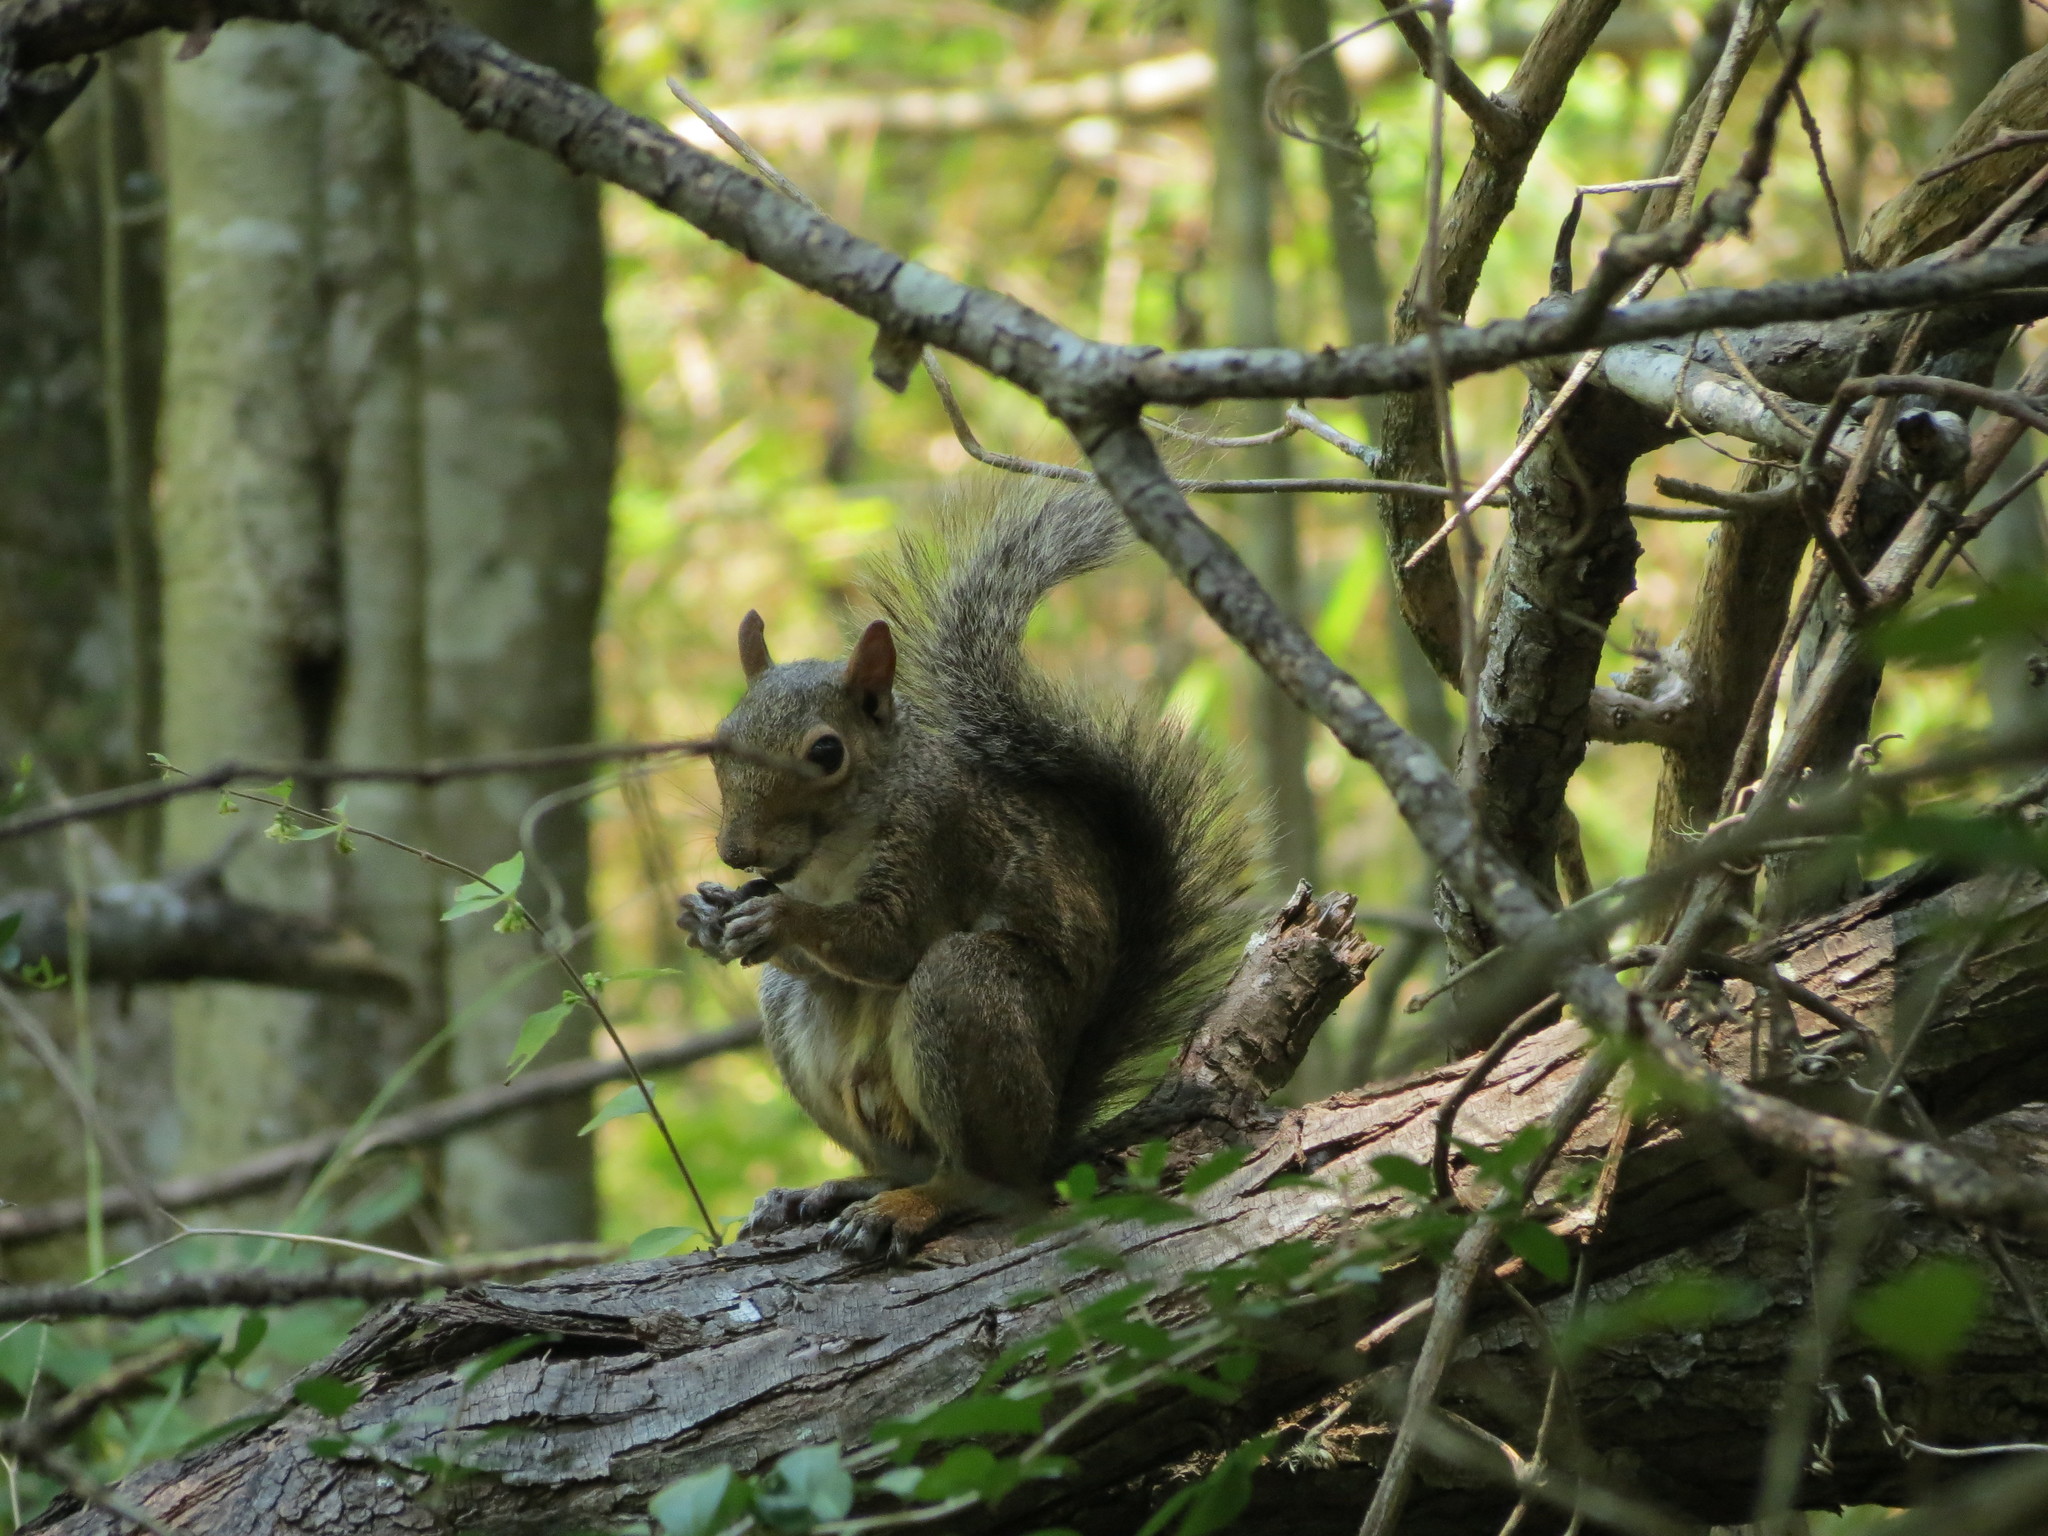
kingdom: Animalia
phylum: Chordata
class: Mammalia
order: Rodentia
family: Sciuridae
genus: Sciurus
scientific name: Sciurus carolinensis
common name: Eastern gray squirrel
